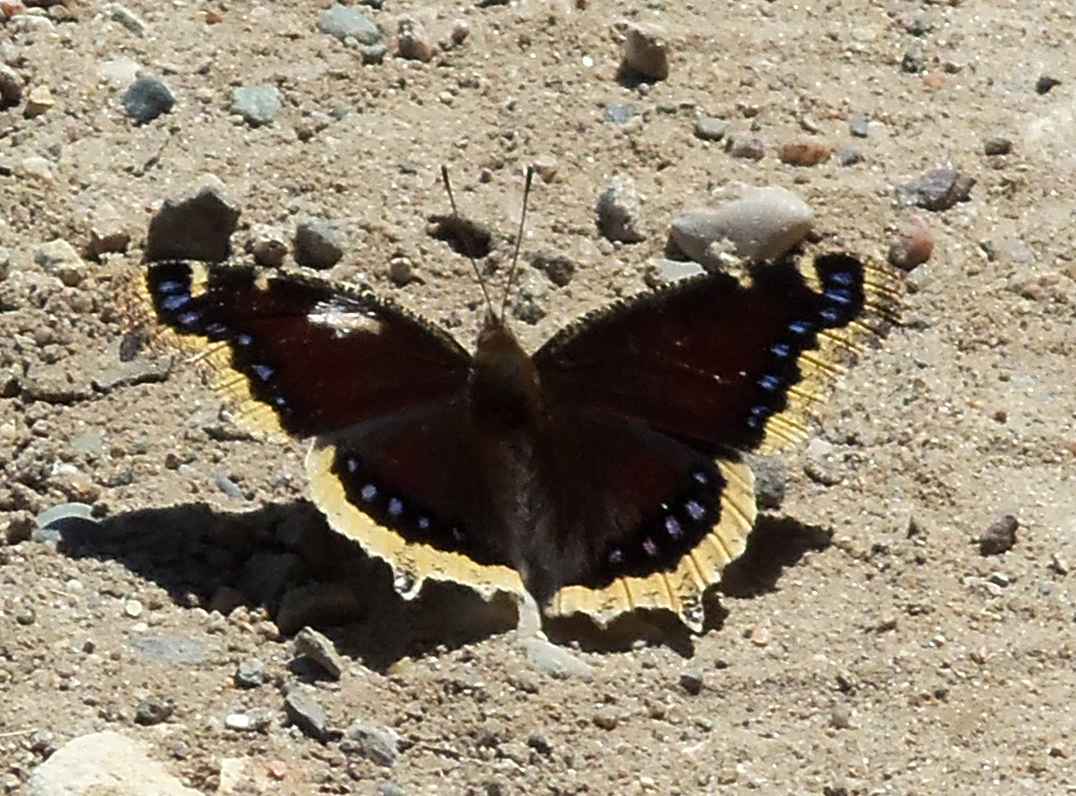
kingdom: Animalia
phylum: Arthropoda
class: Insecta
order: Lepidoptera
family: Nymphalidae
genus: Nymphalis
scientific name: Nymphalis antiopa
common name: Camberwell beauty
